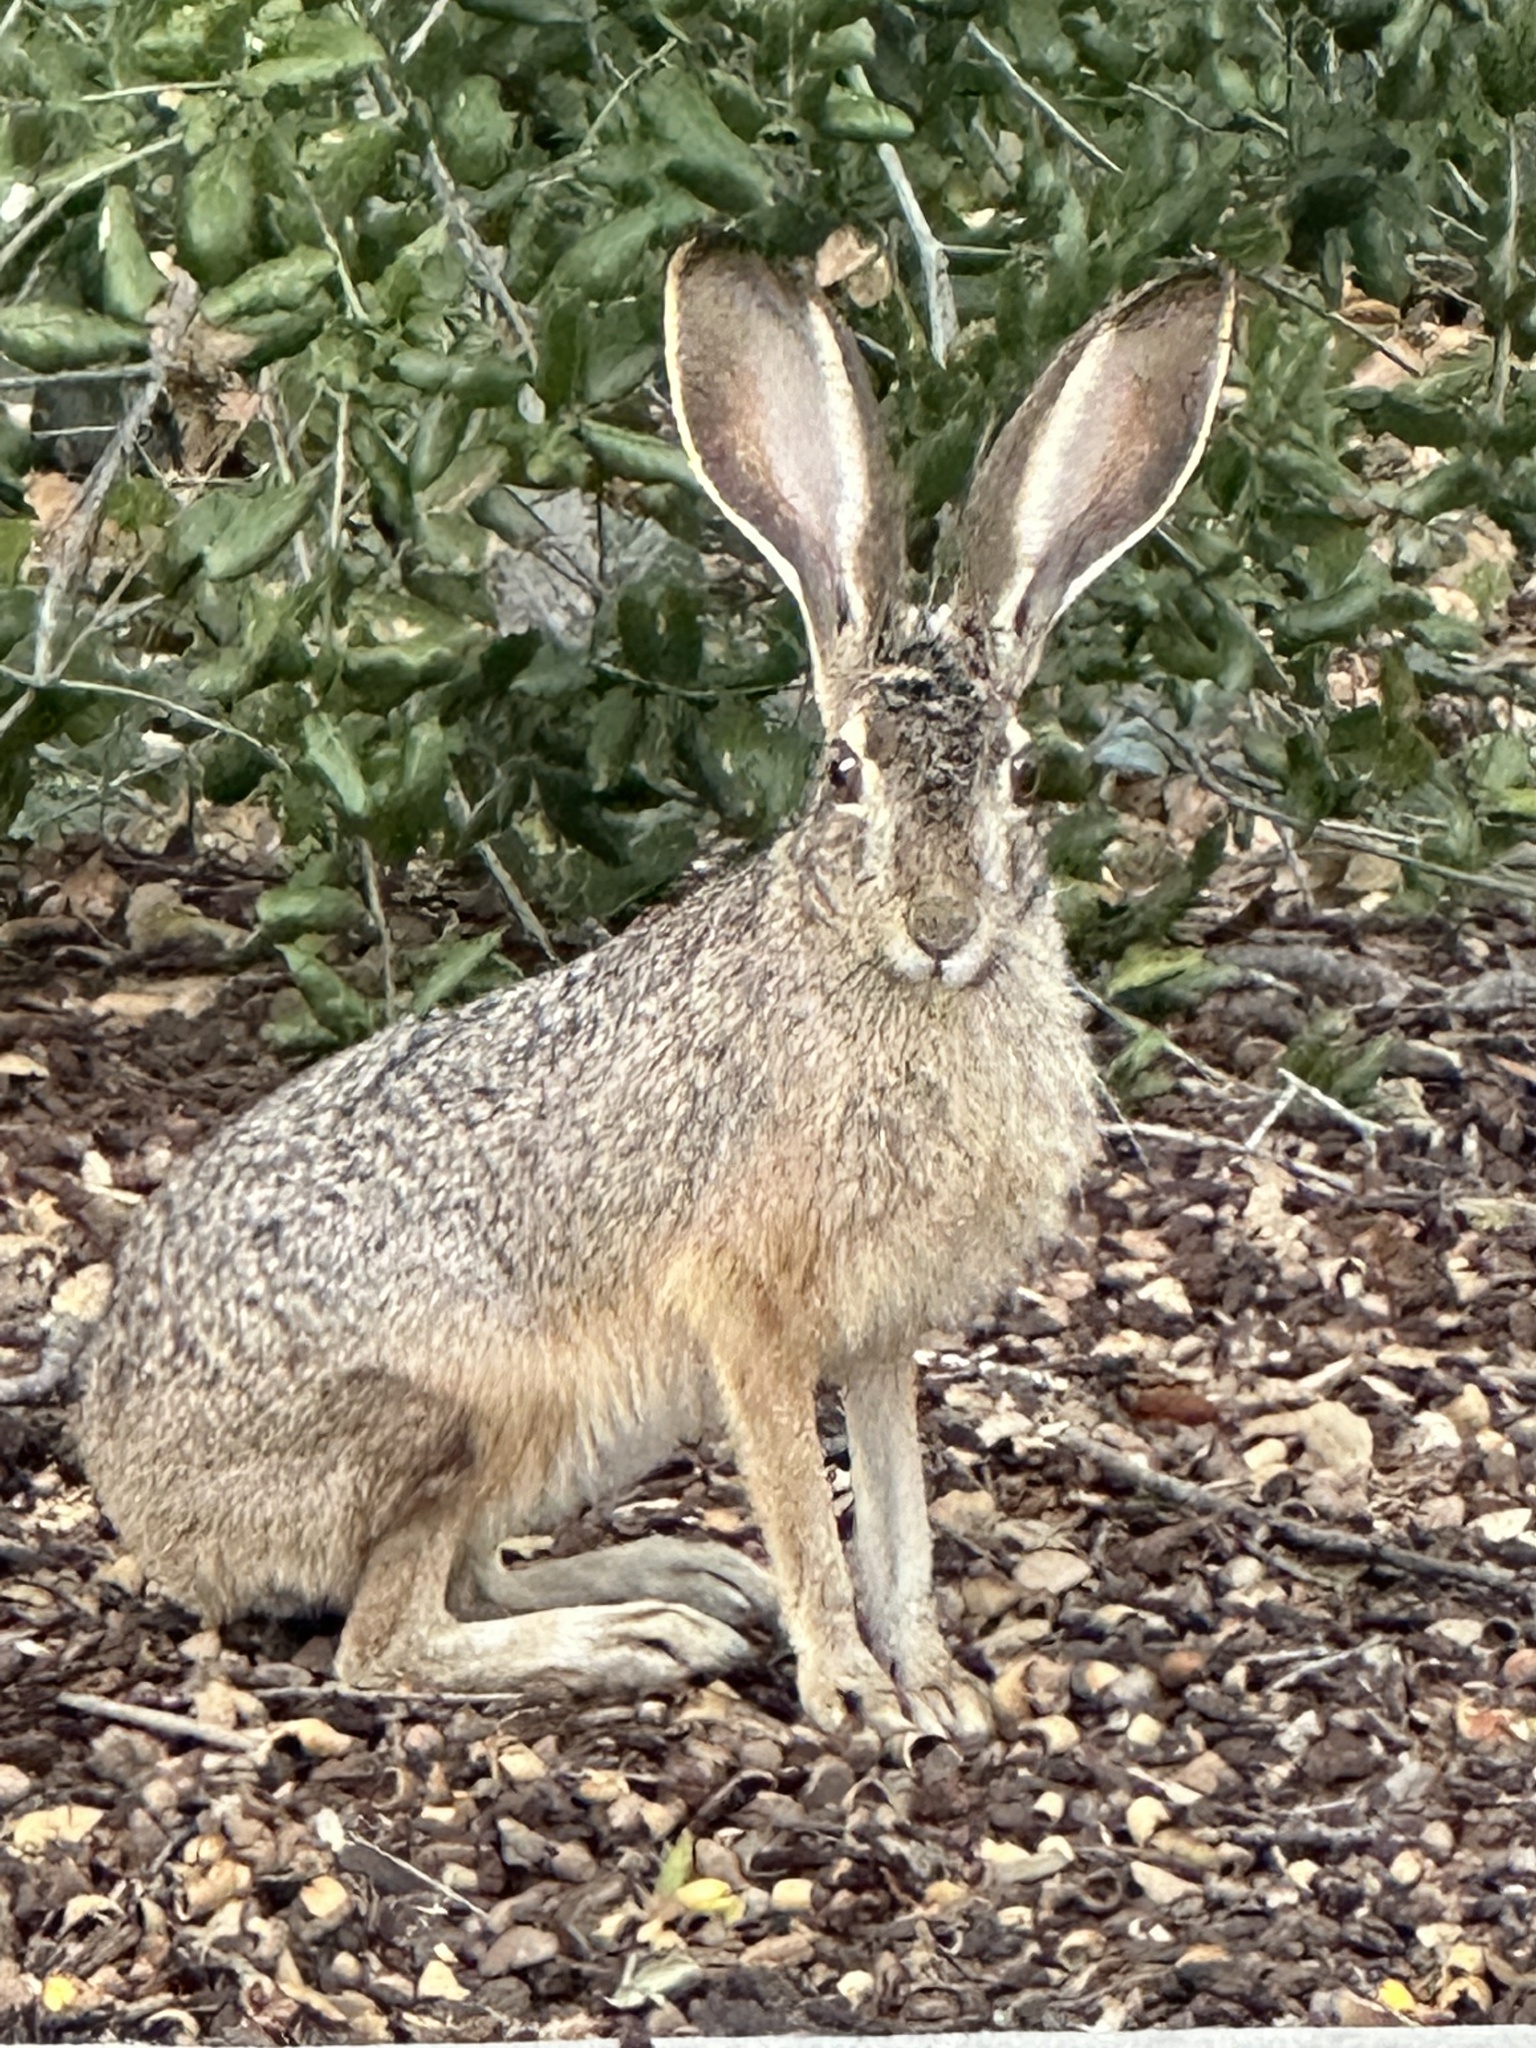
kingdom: Animalia
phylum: Chordata
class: Mammalia
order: Lagomorpha
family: Leporidae
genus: Lepus
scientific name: Lepus californicus
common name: Black-tailed jackrabbit
